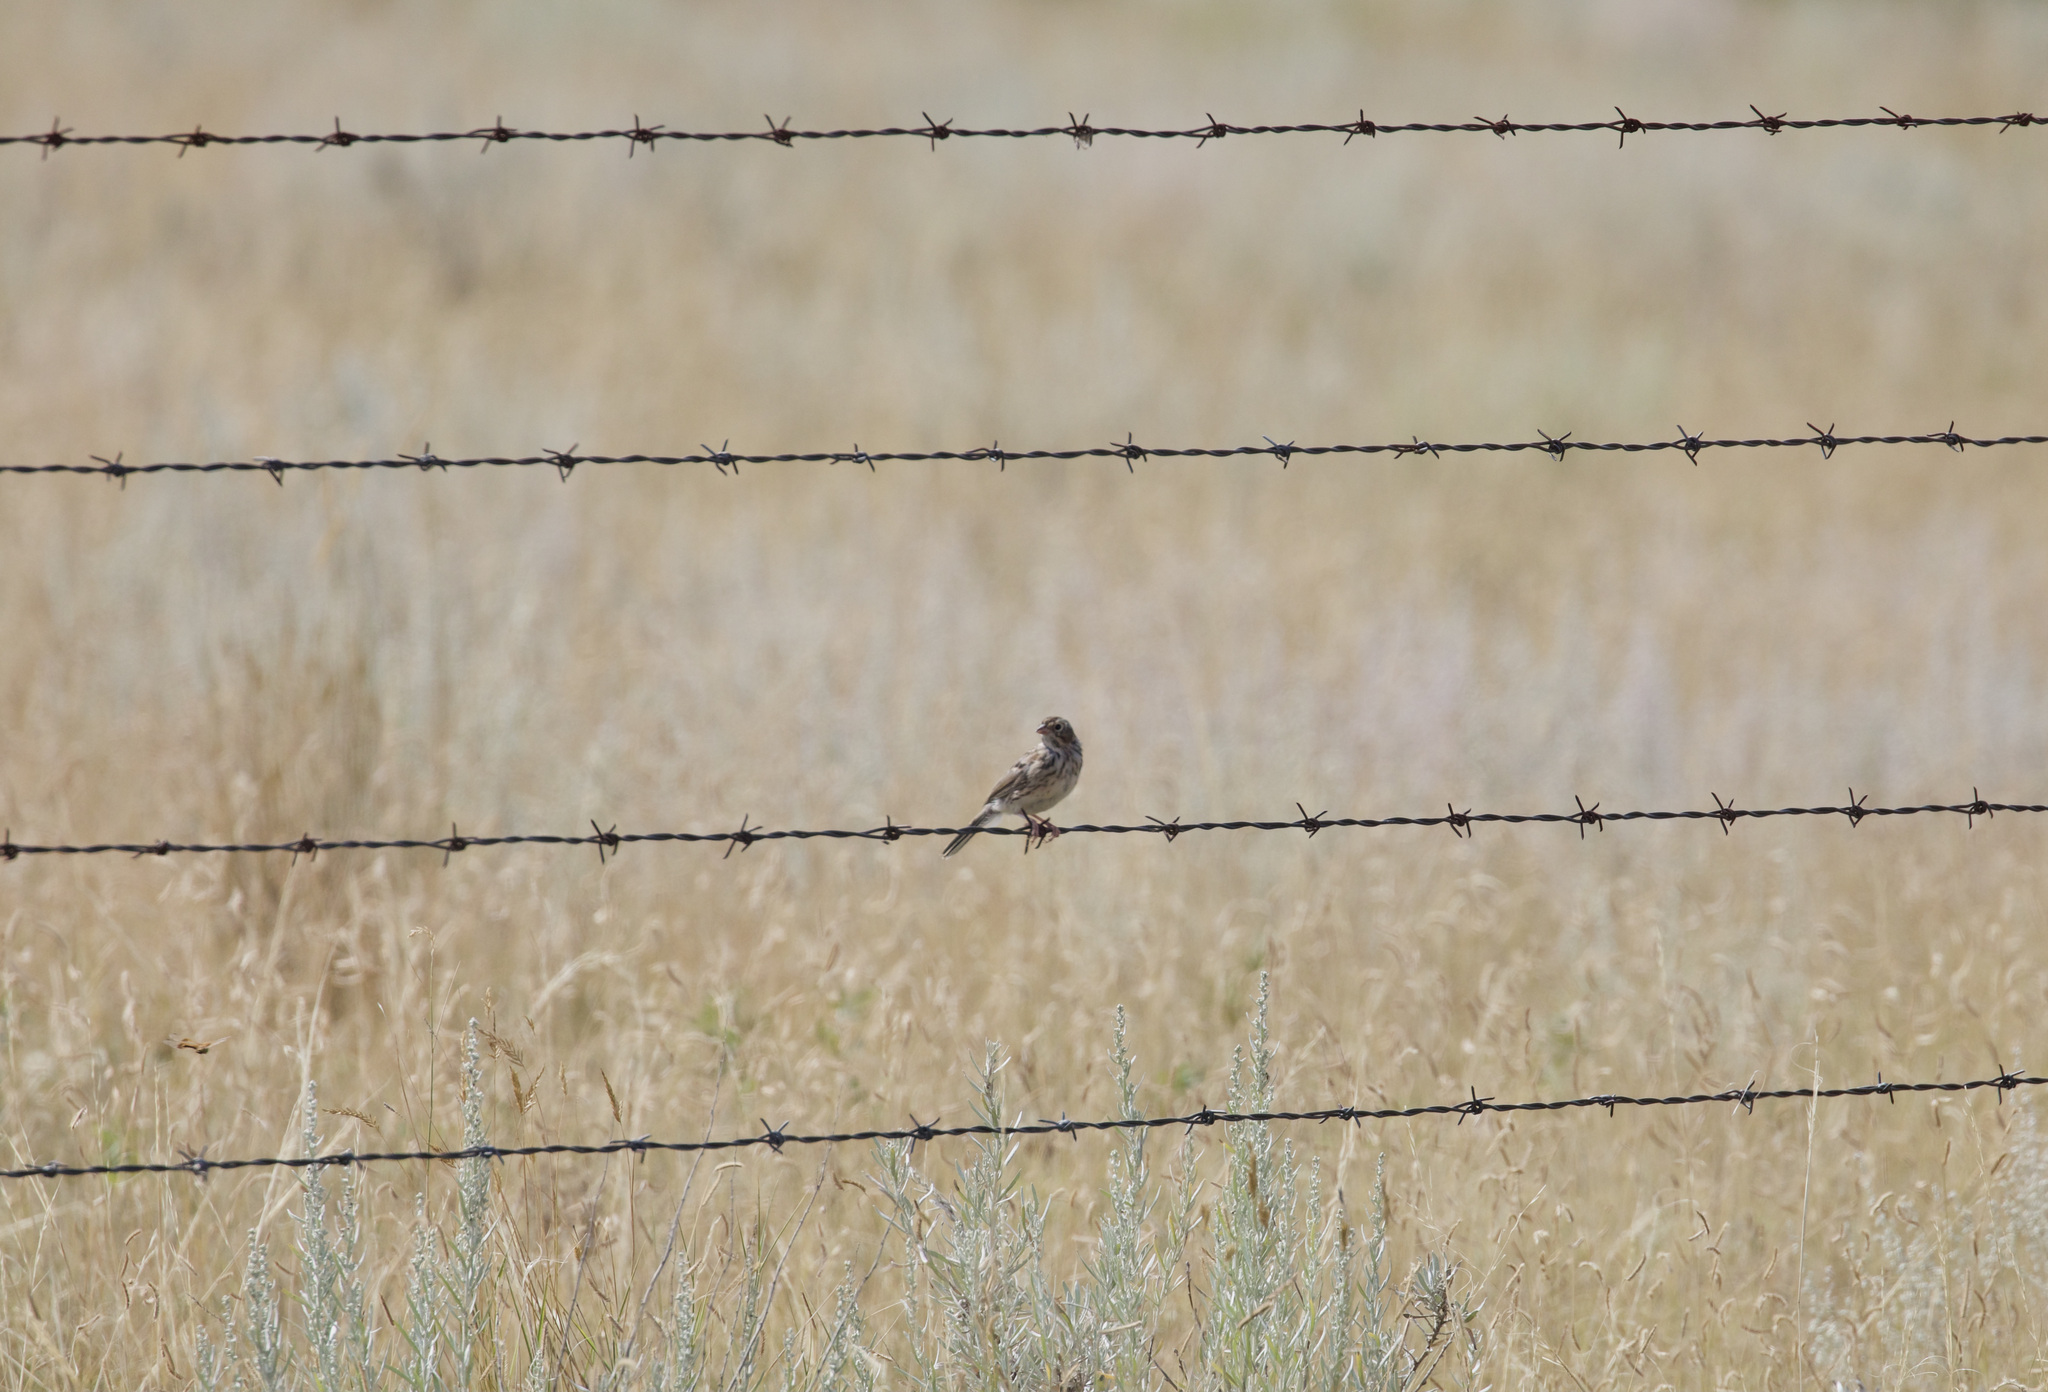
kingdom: Animalia
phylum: Chordata
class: Aves
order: Passeriformes
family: Passerellidae
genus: Pooecetes
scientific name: Pooecetes gramineus
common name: Vesper sparrow
